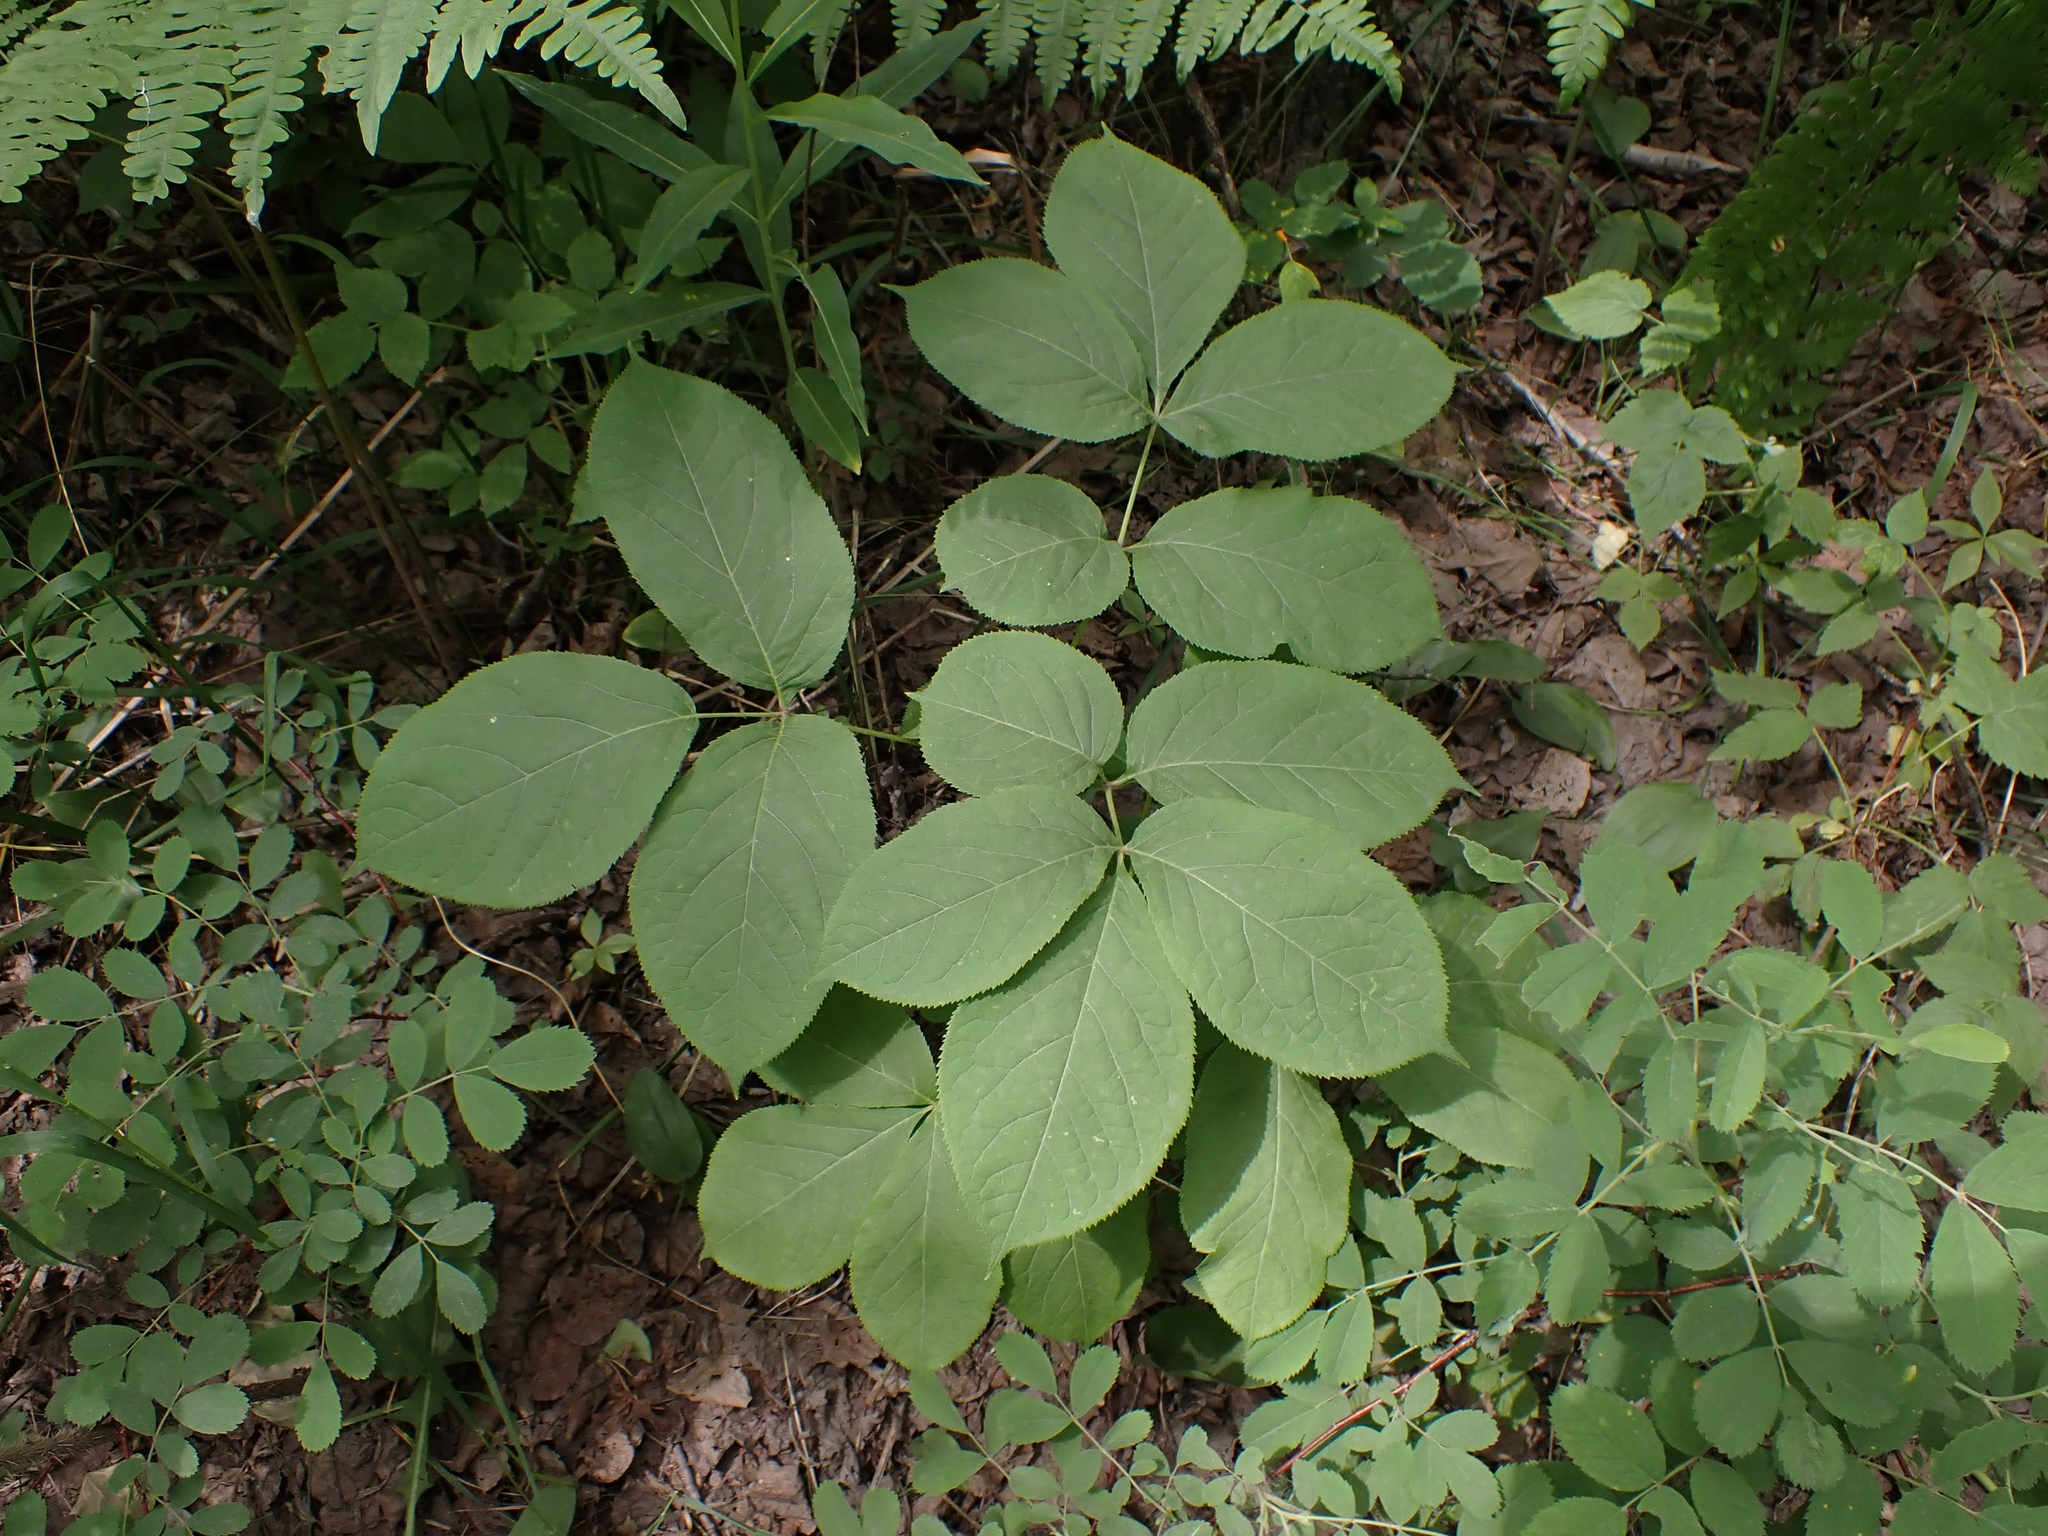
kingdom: Plantae
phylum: Tracheophyta
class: Magnoliopsida
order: Apiales
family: Araliaceae
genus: Aralia
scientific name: Aralia nudicaulis
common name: Wild sarsaparilla
